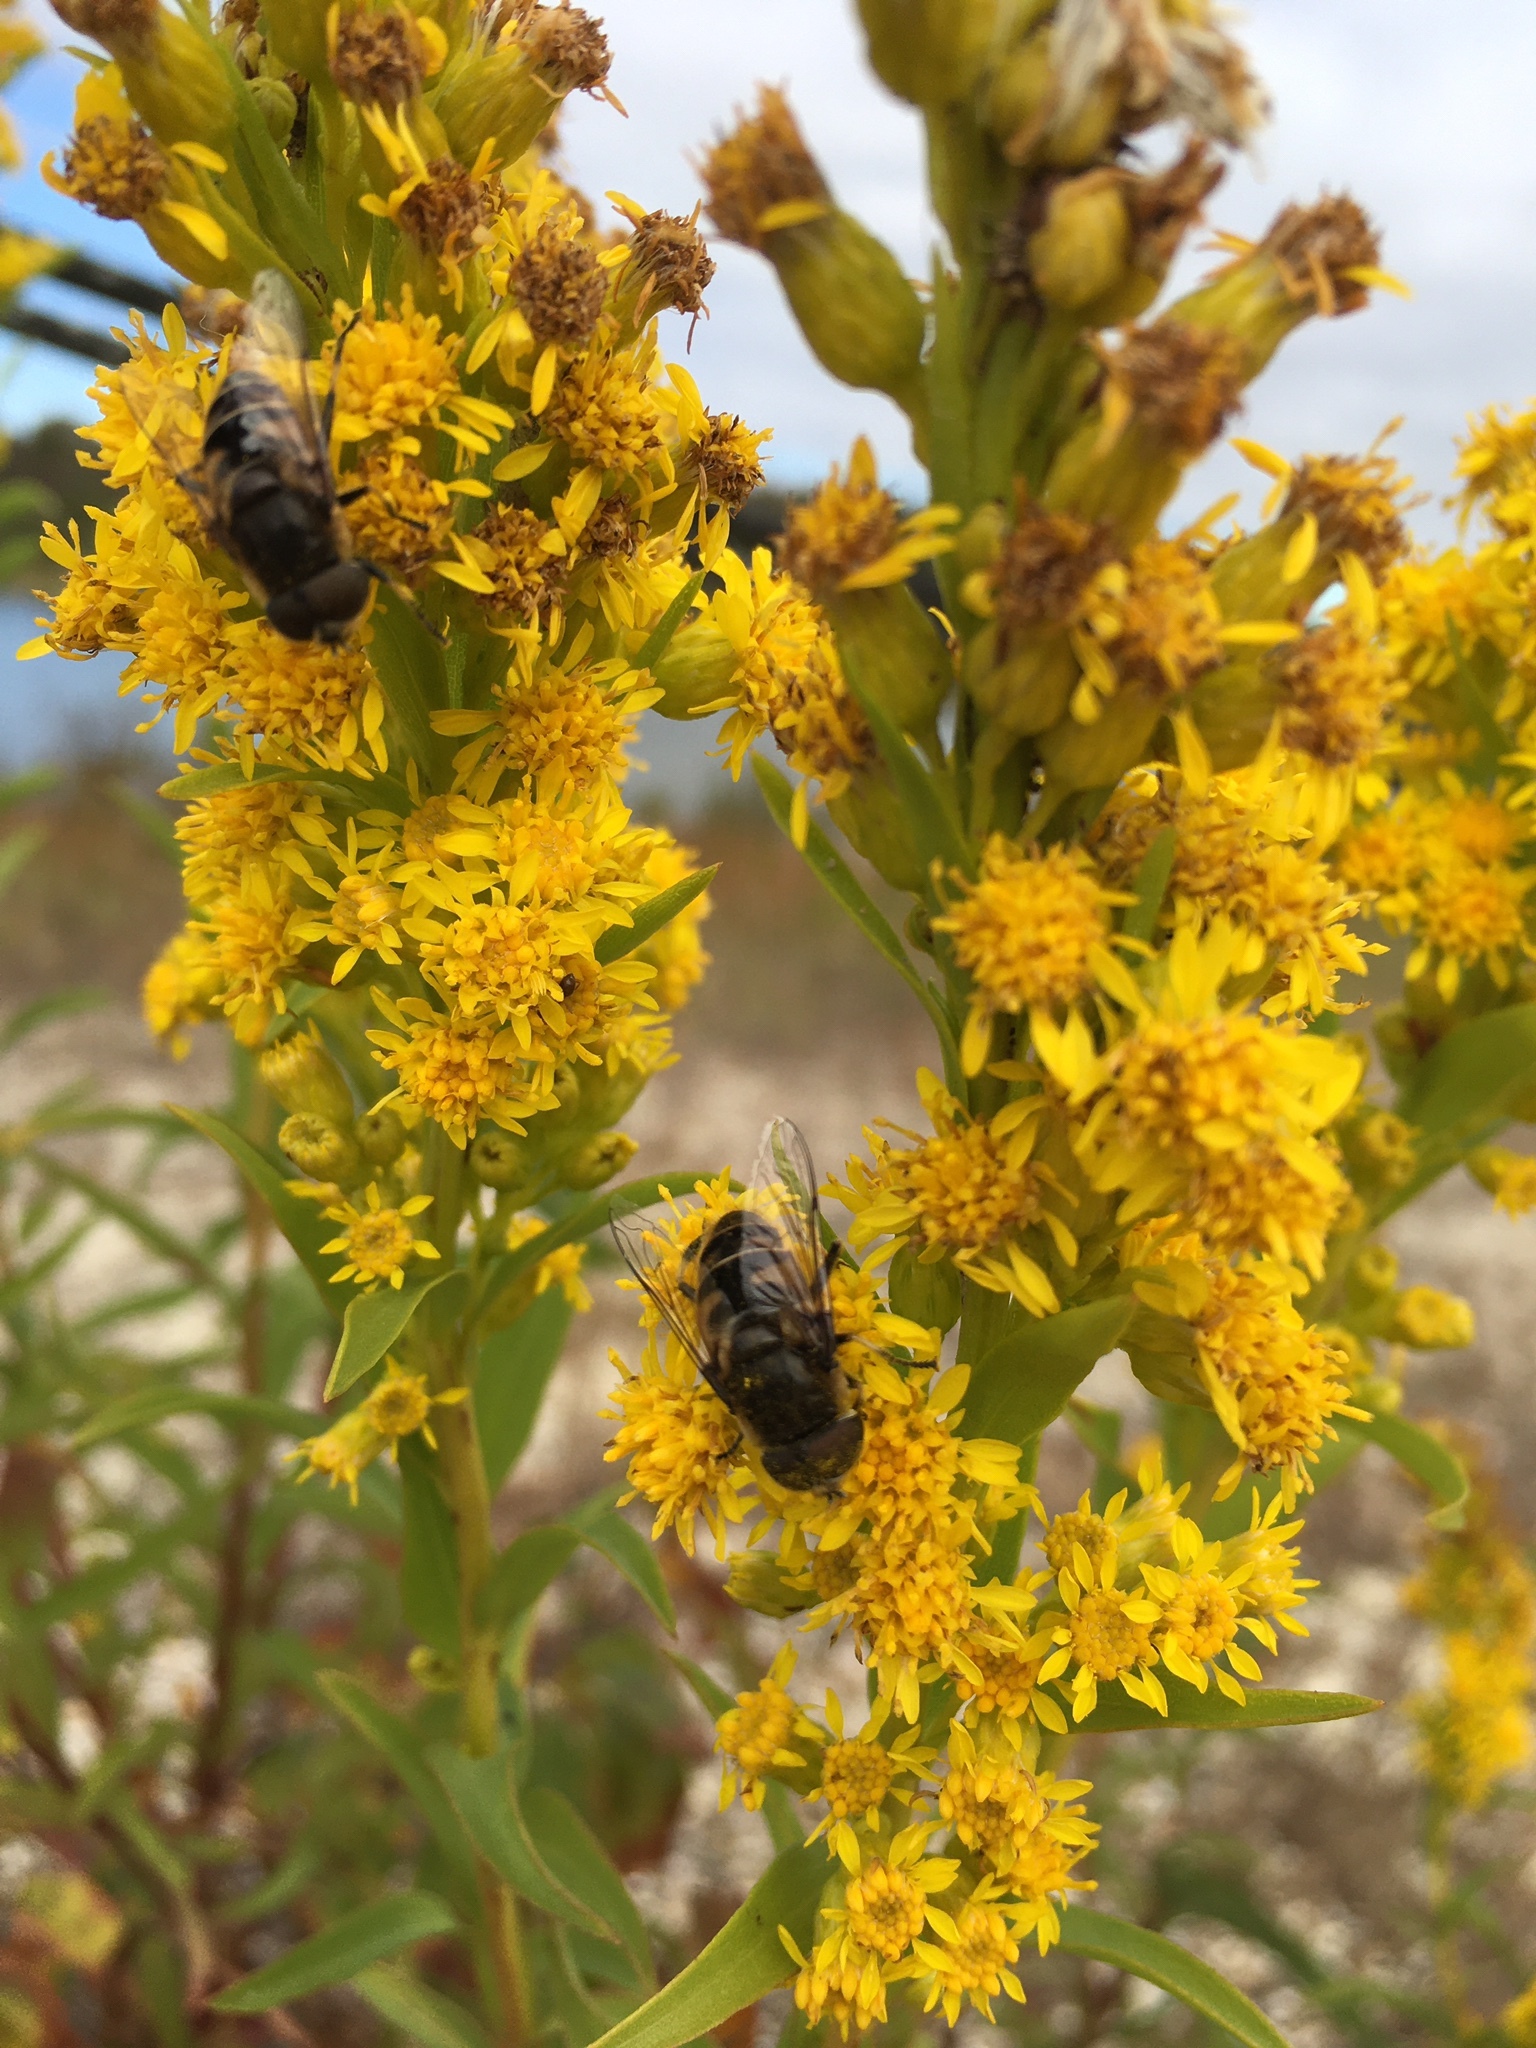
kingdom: Animalia
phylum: Arthropoda
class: Insecta
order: Diptera
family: Syrphidae
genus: Eristalis
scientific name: Eristalis dimidiata
